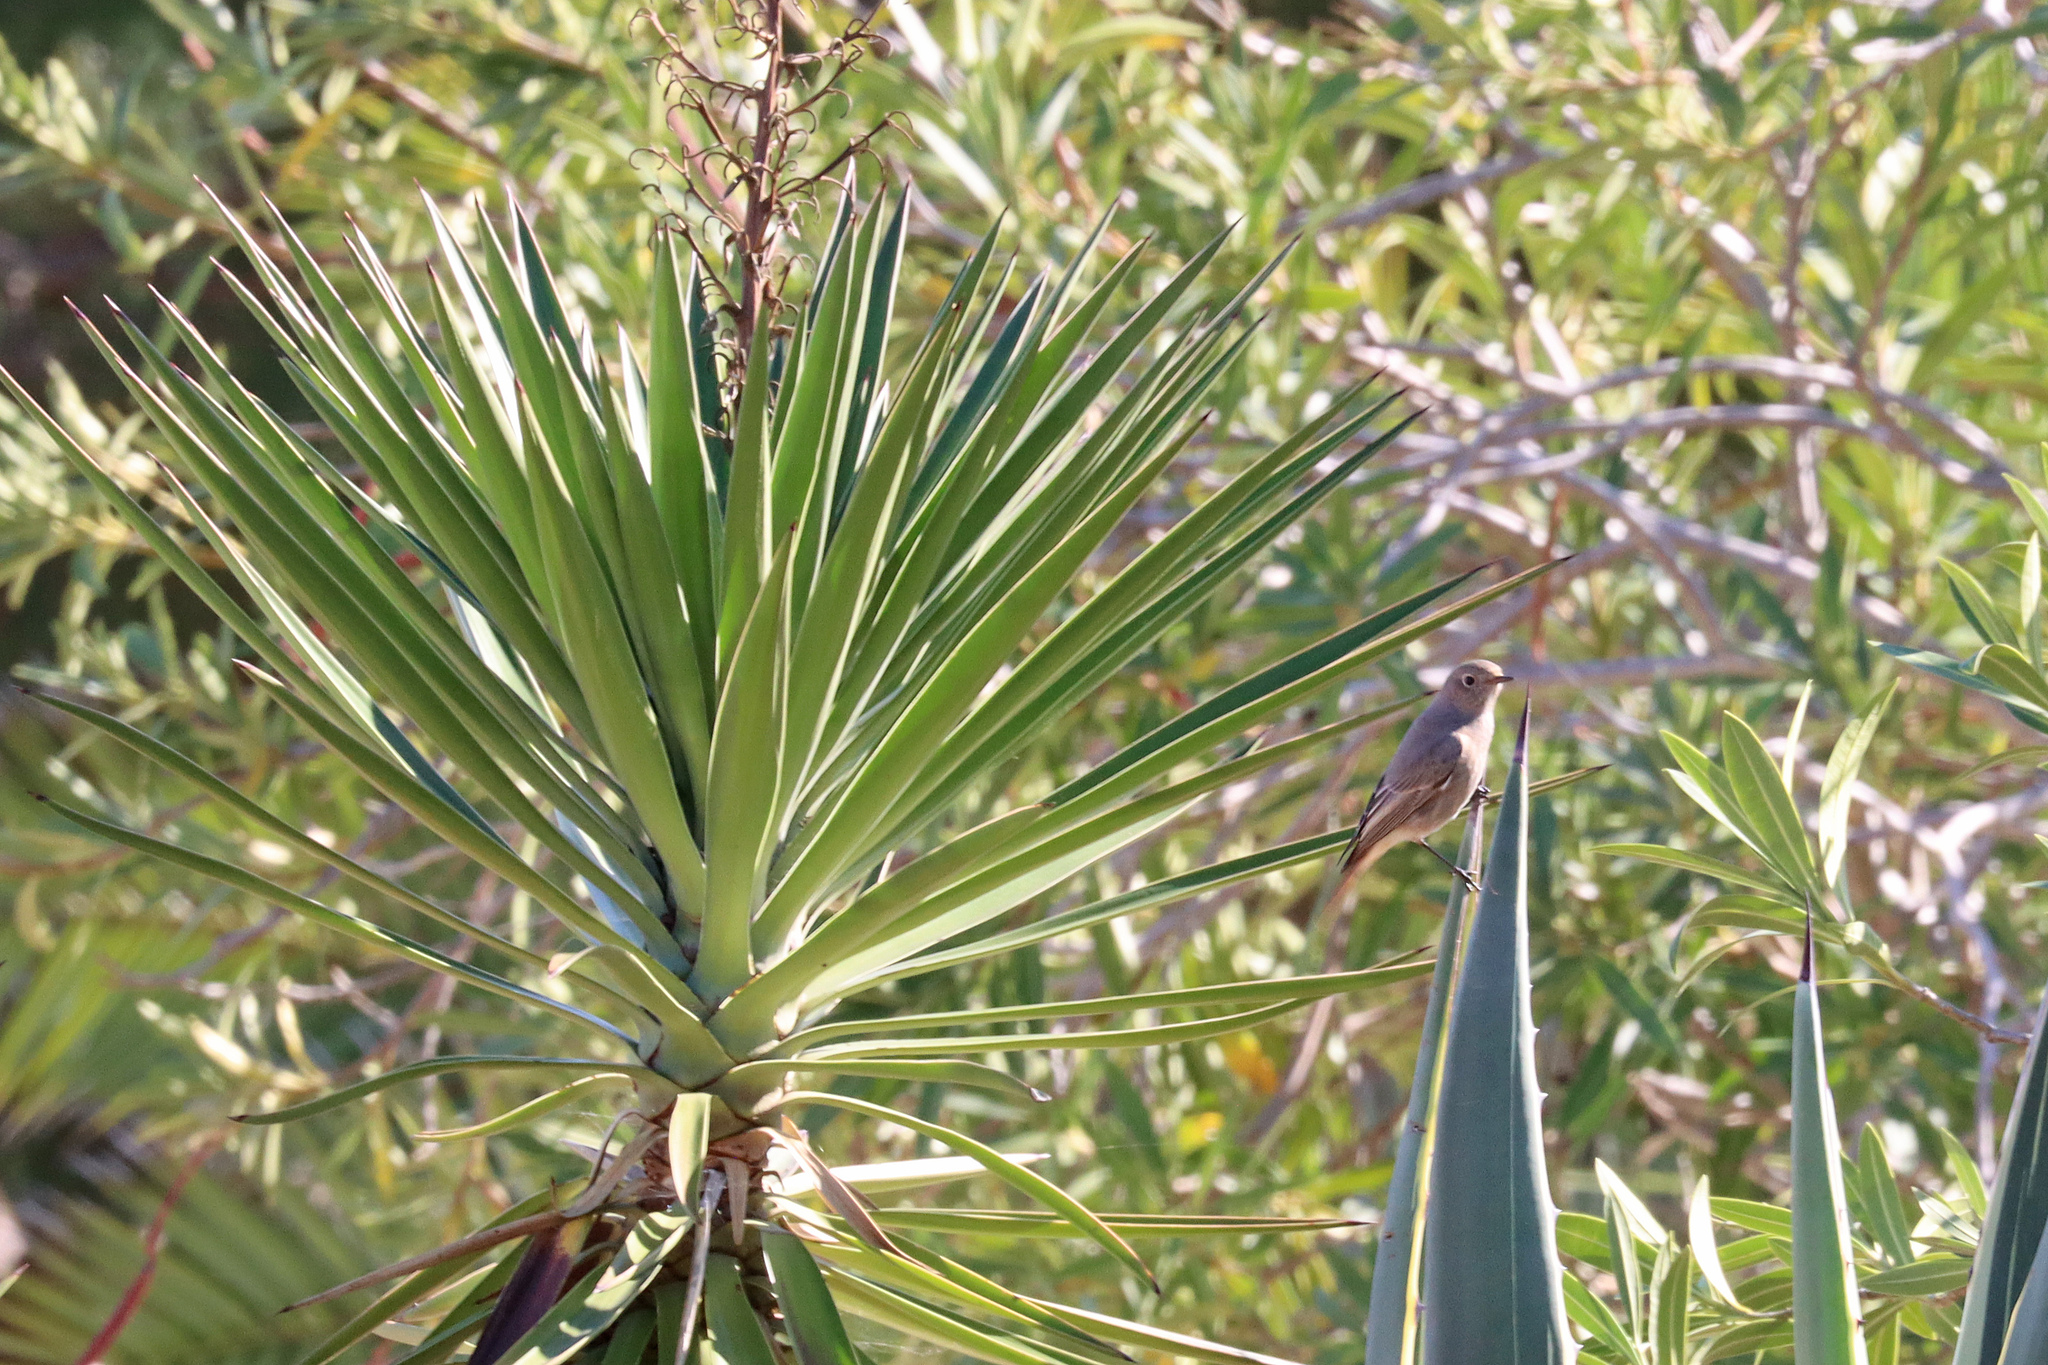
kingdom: Animalia
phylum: Chordata
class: Aves
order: Passeriformes
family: Muscicapidae
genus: Phoenicurus
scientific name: Phoenicurus ochruros
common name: Black redstart
